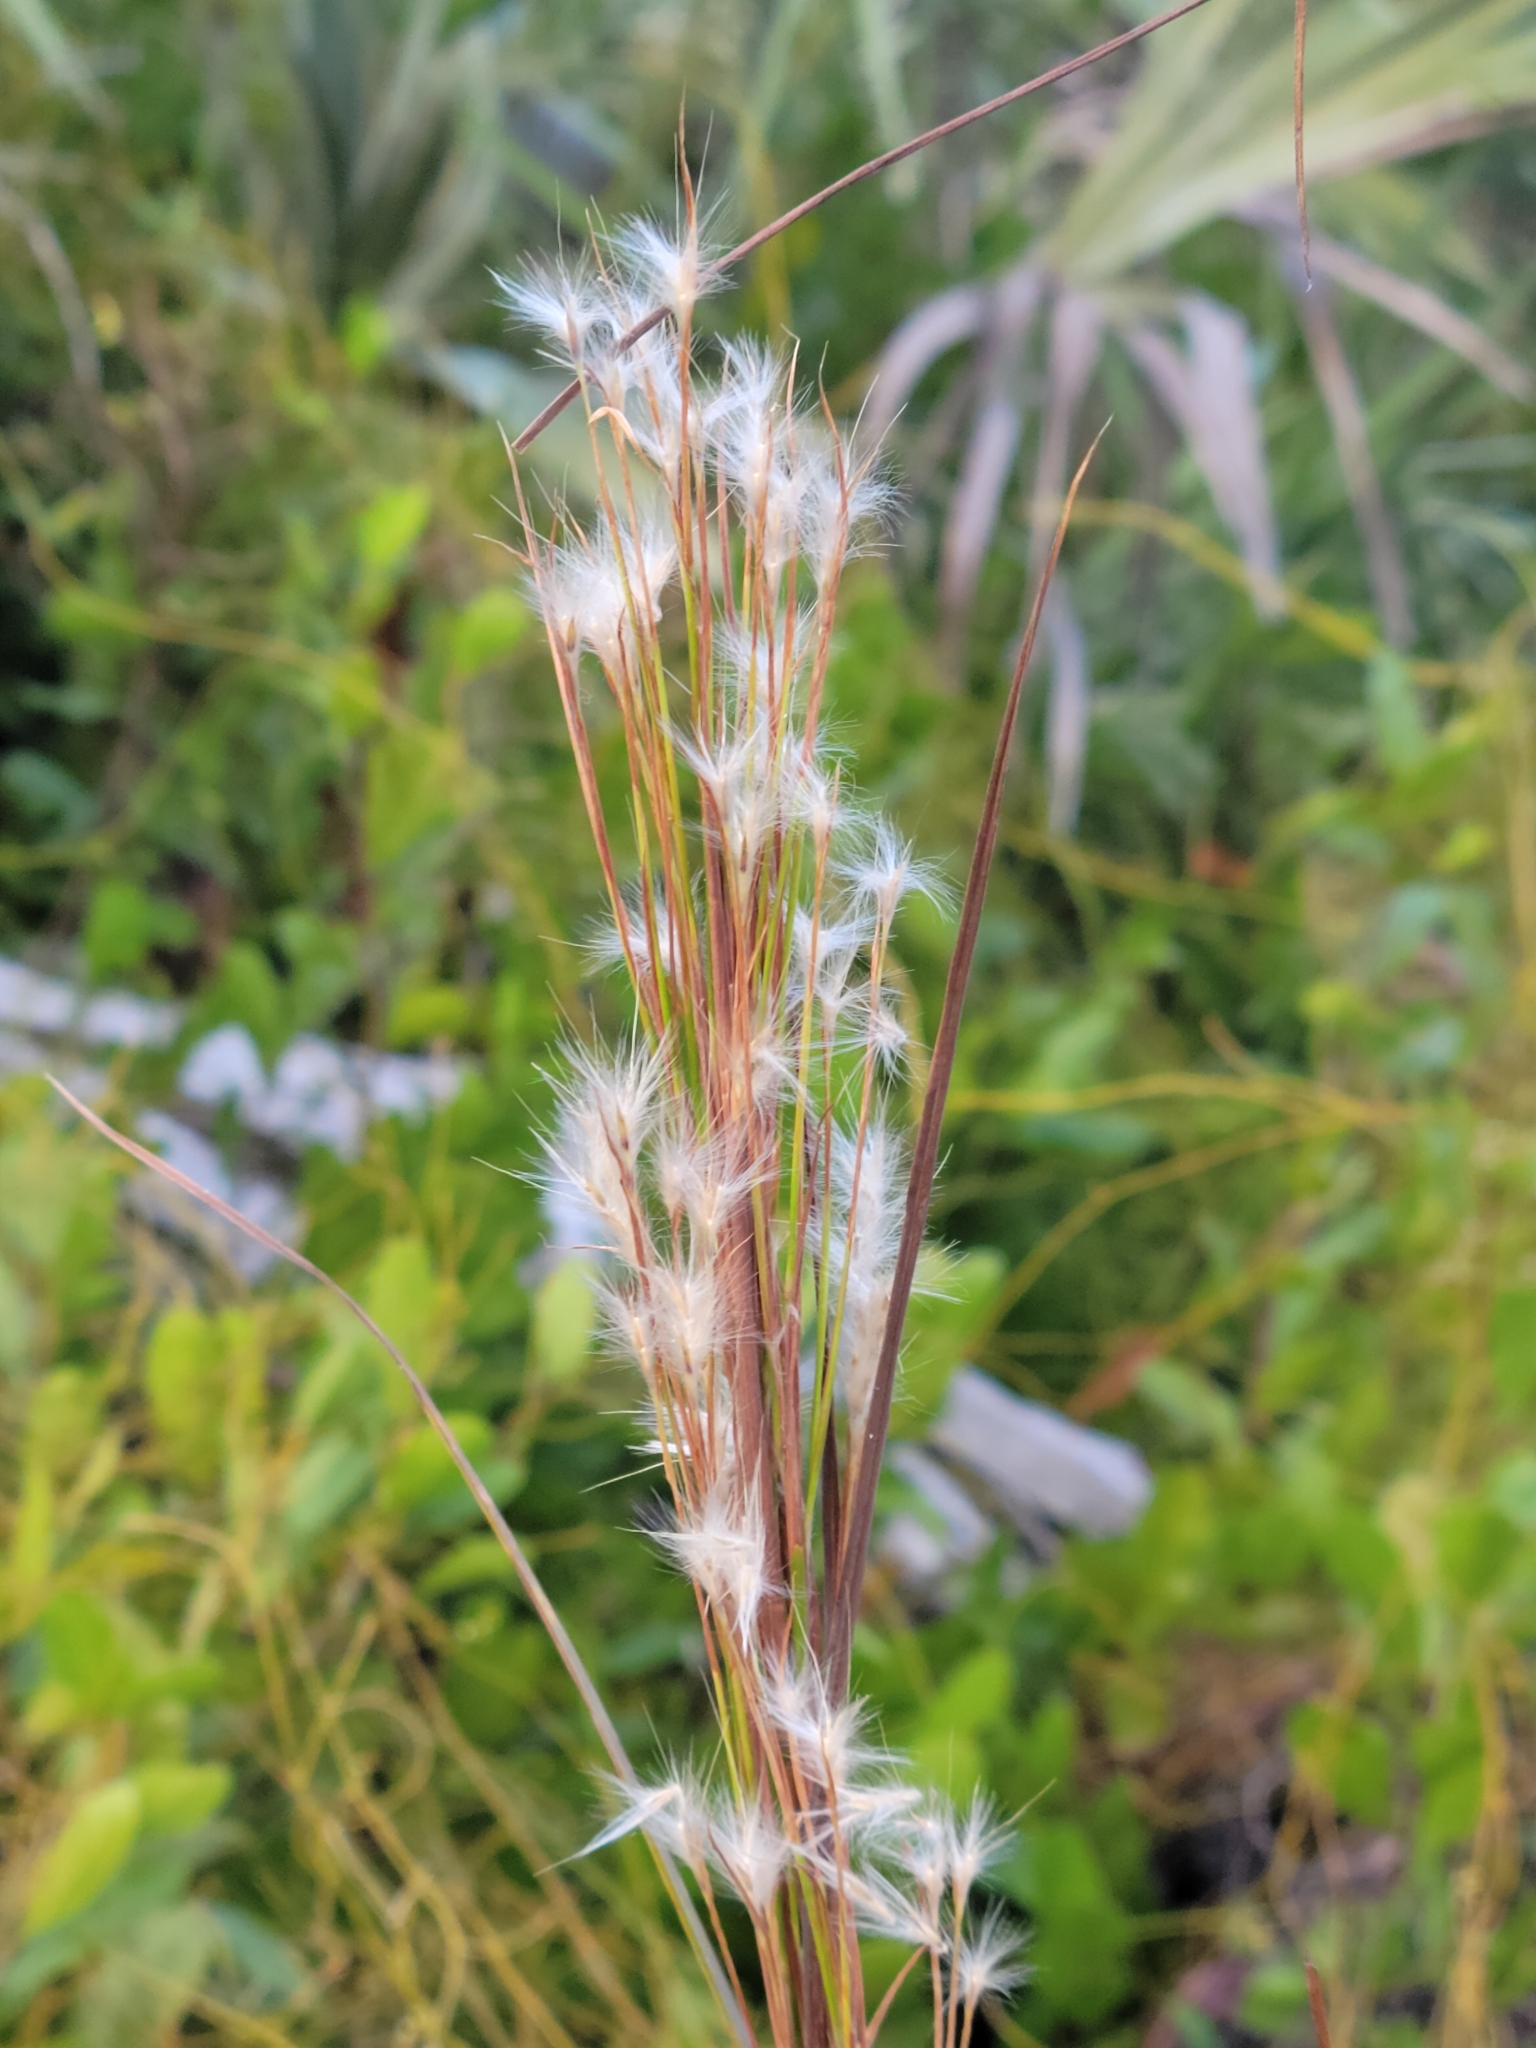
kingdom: Plantae
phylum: Tracheophyta
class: Liliopsida
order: Poales
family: Poaceae
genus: Andropogon
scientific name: Andropogon floridanus
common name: Florida bluestem
